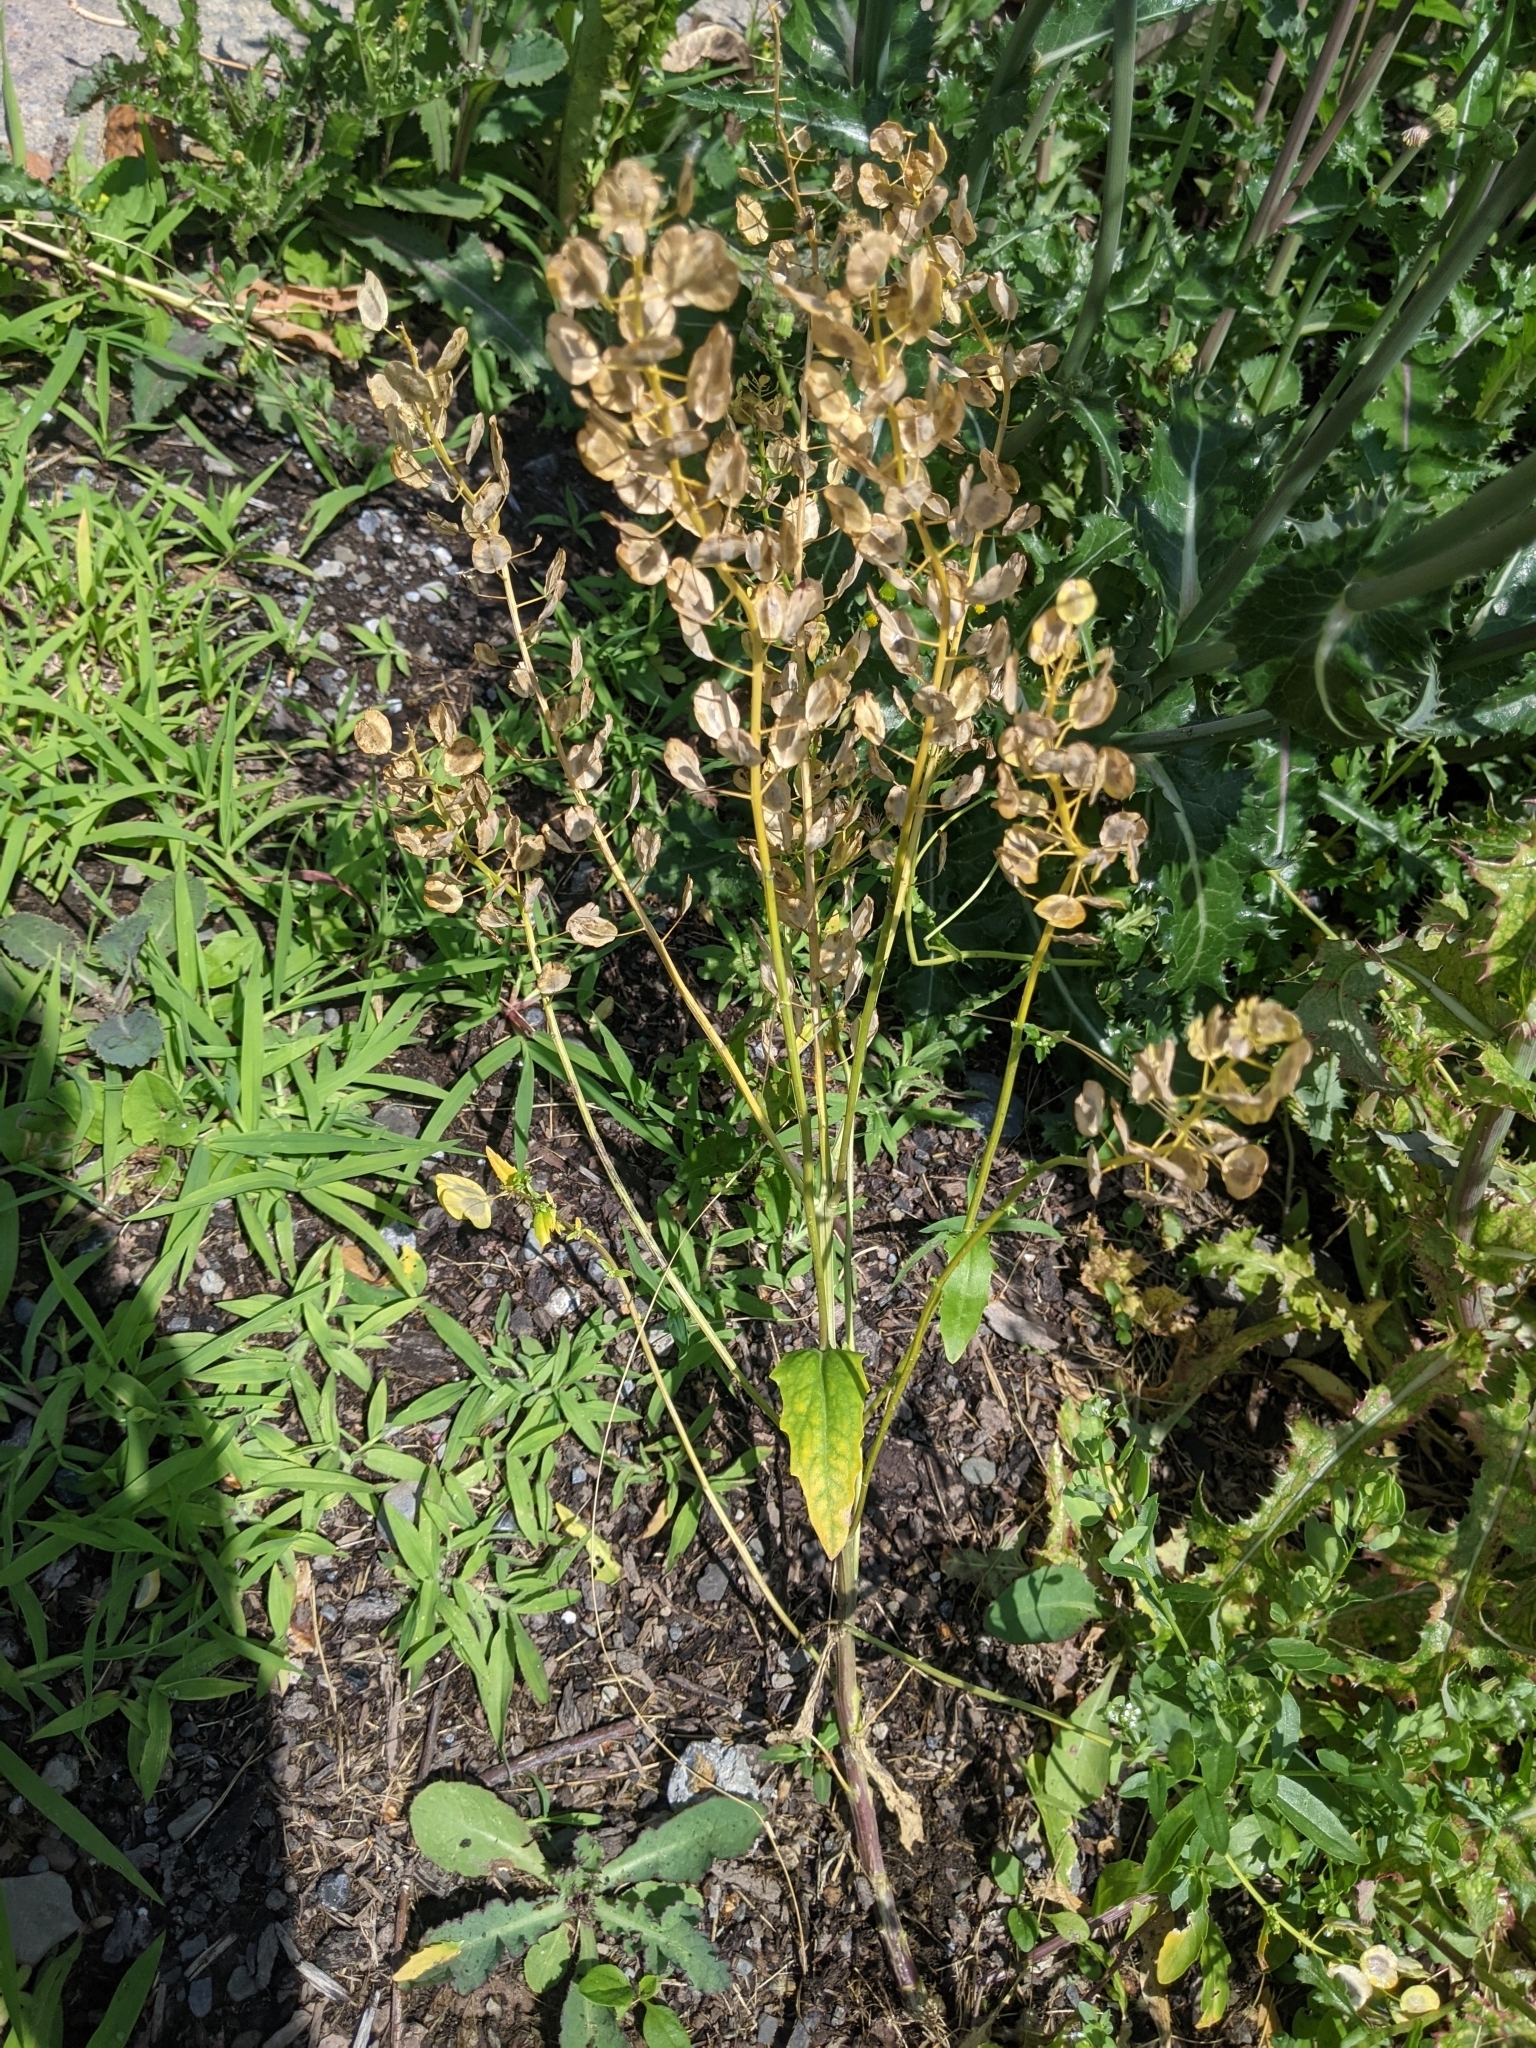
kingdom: Plantae
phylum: Tracheophyta
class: Magnoliopsida
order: Brassicales
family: Brassicaceae
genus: Thlaspi
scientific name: Thlaspi arvense
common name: Field pennycress
